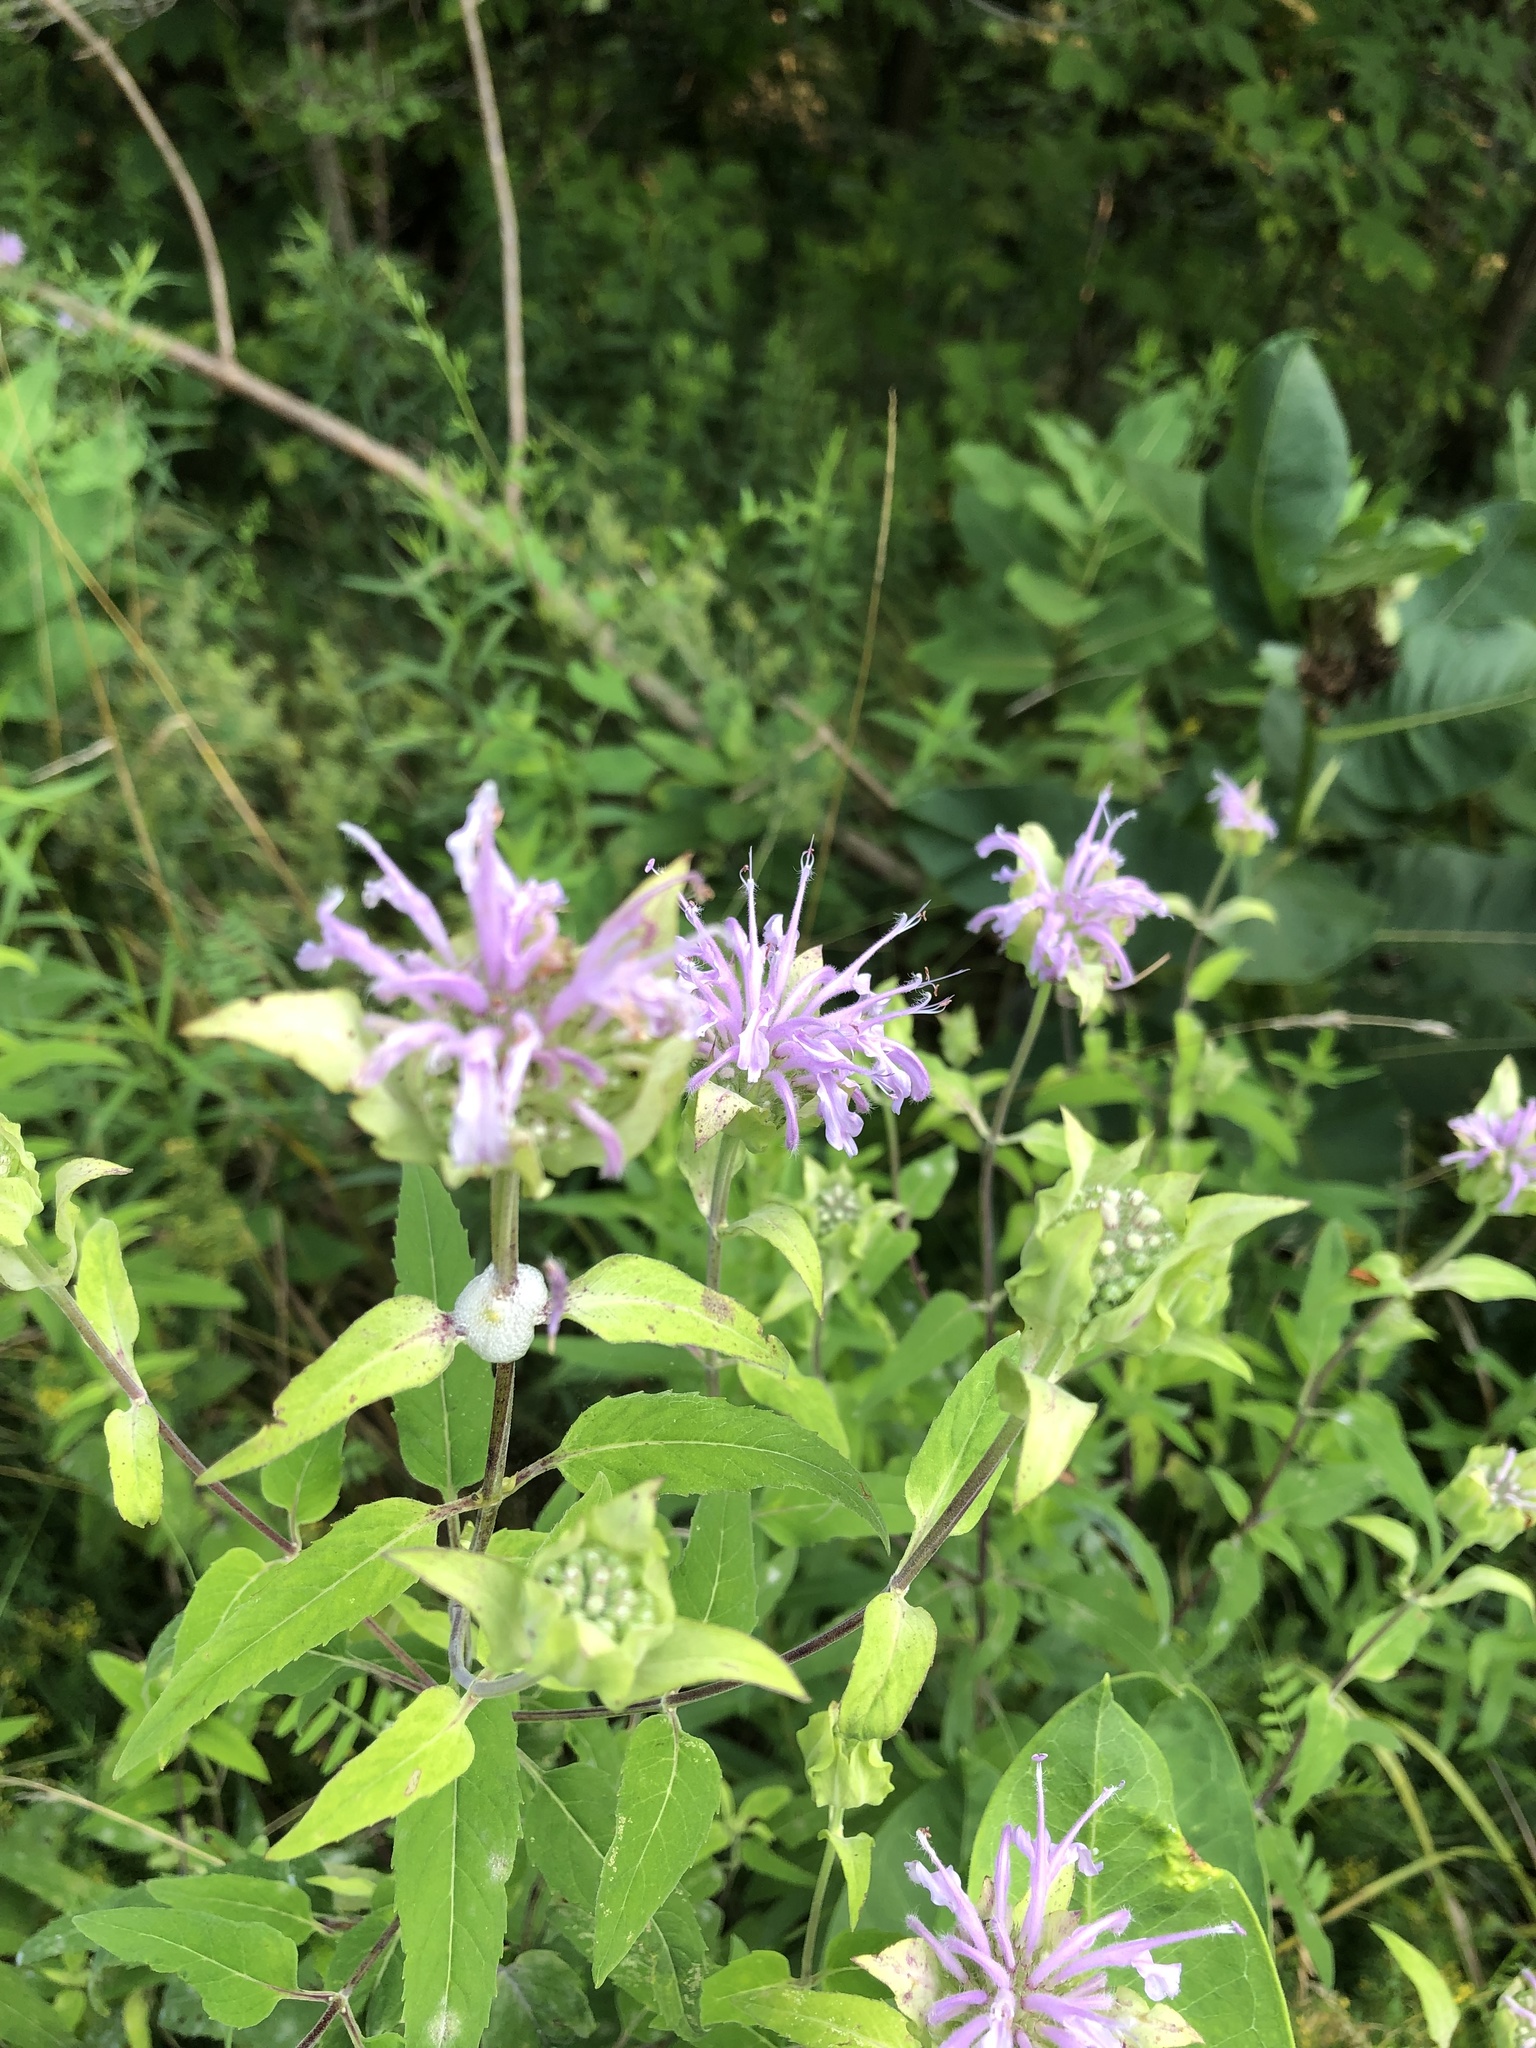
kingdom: Plantae
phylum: Tracheophyta
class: Magnoliopsida
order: Lamiales
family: Lamiaceae
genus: Monarda
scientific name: Monarda fistulosa
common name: Purple beebalm
